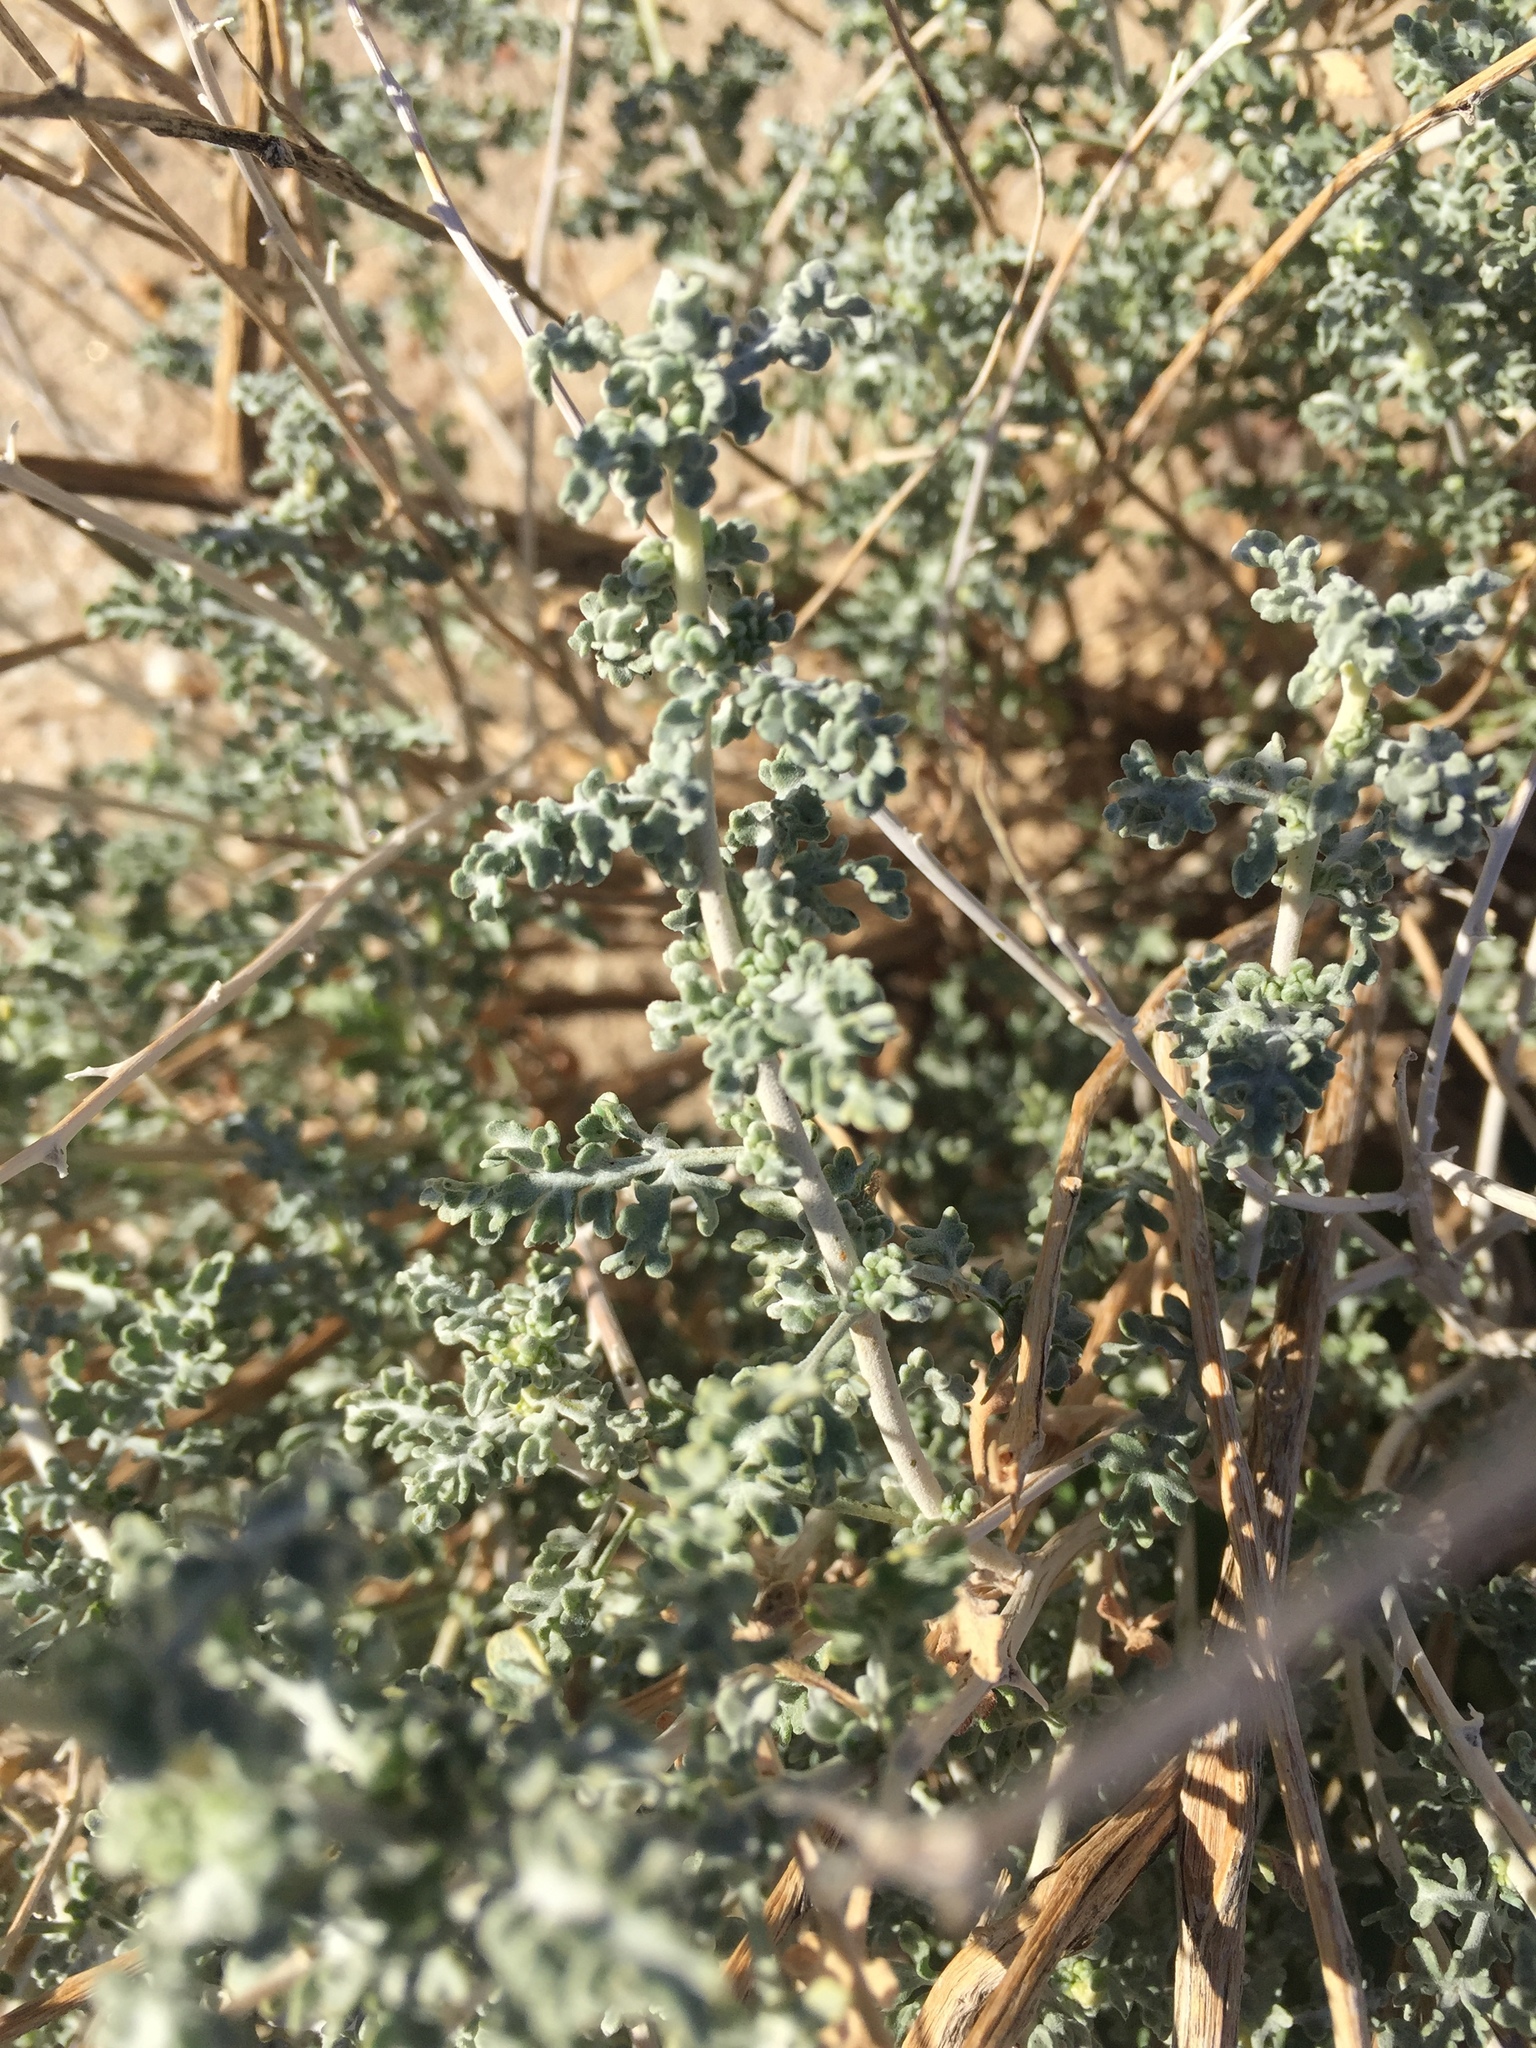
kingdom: Plantae
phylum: Tracheophyta
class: Magnoliopsida
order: Asterales
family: Asteraceae
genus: Ambrosia
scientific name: Ambrosia dumosa
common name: Bur-sage
